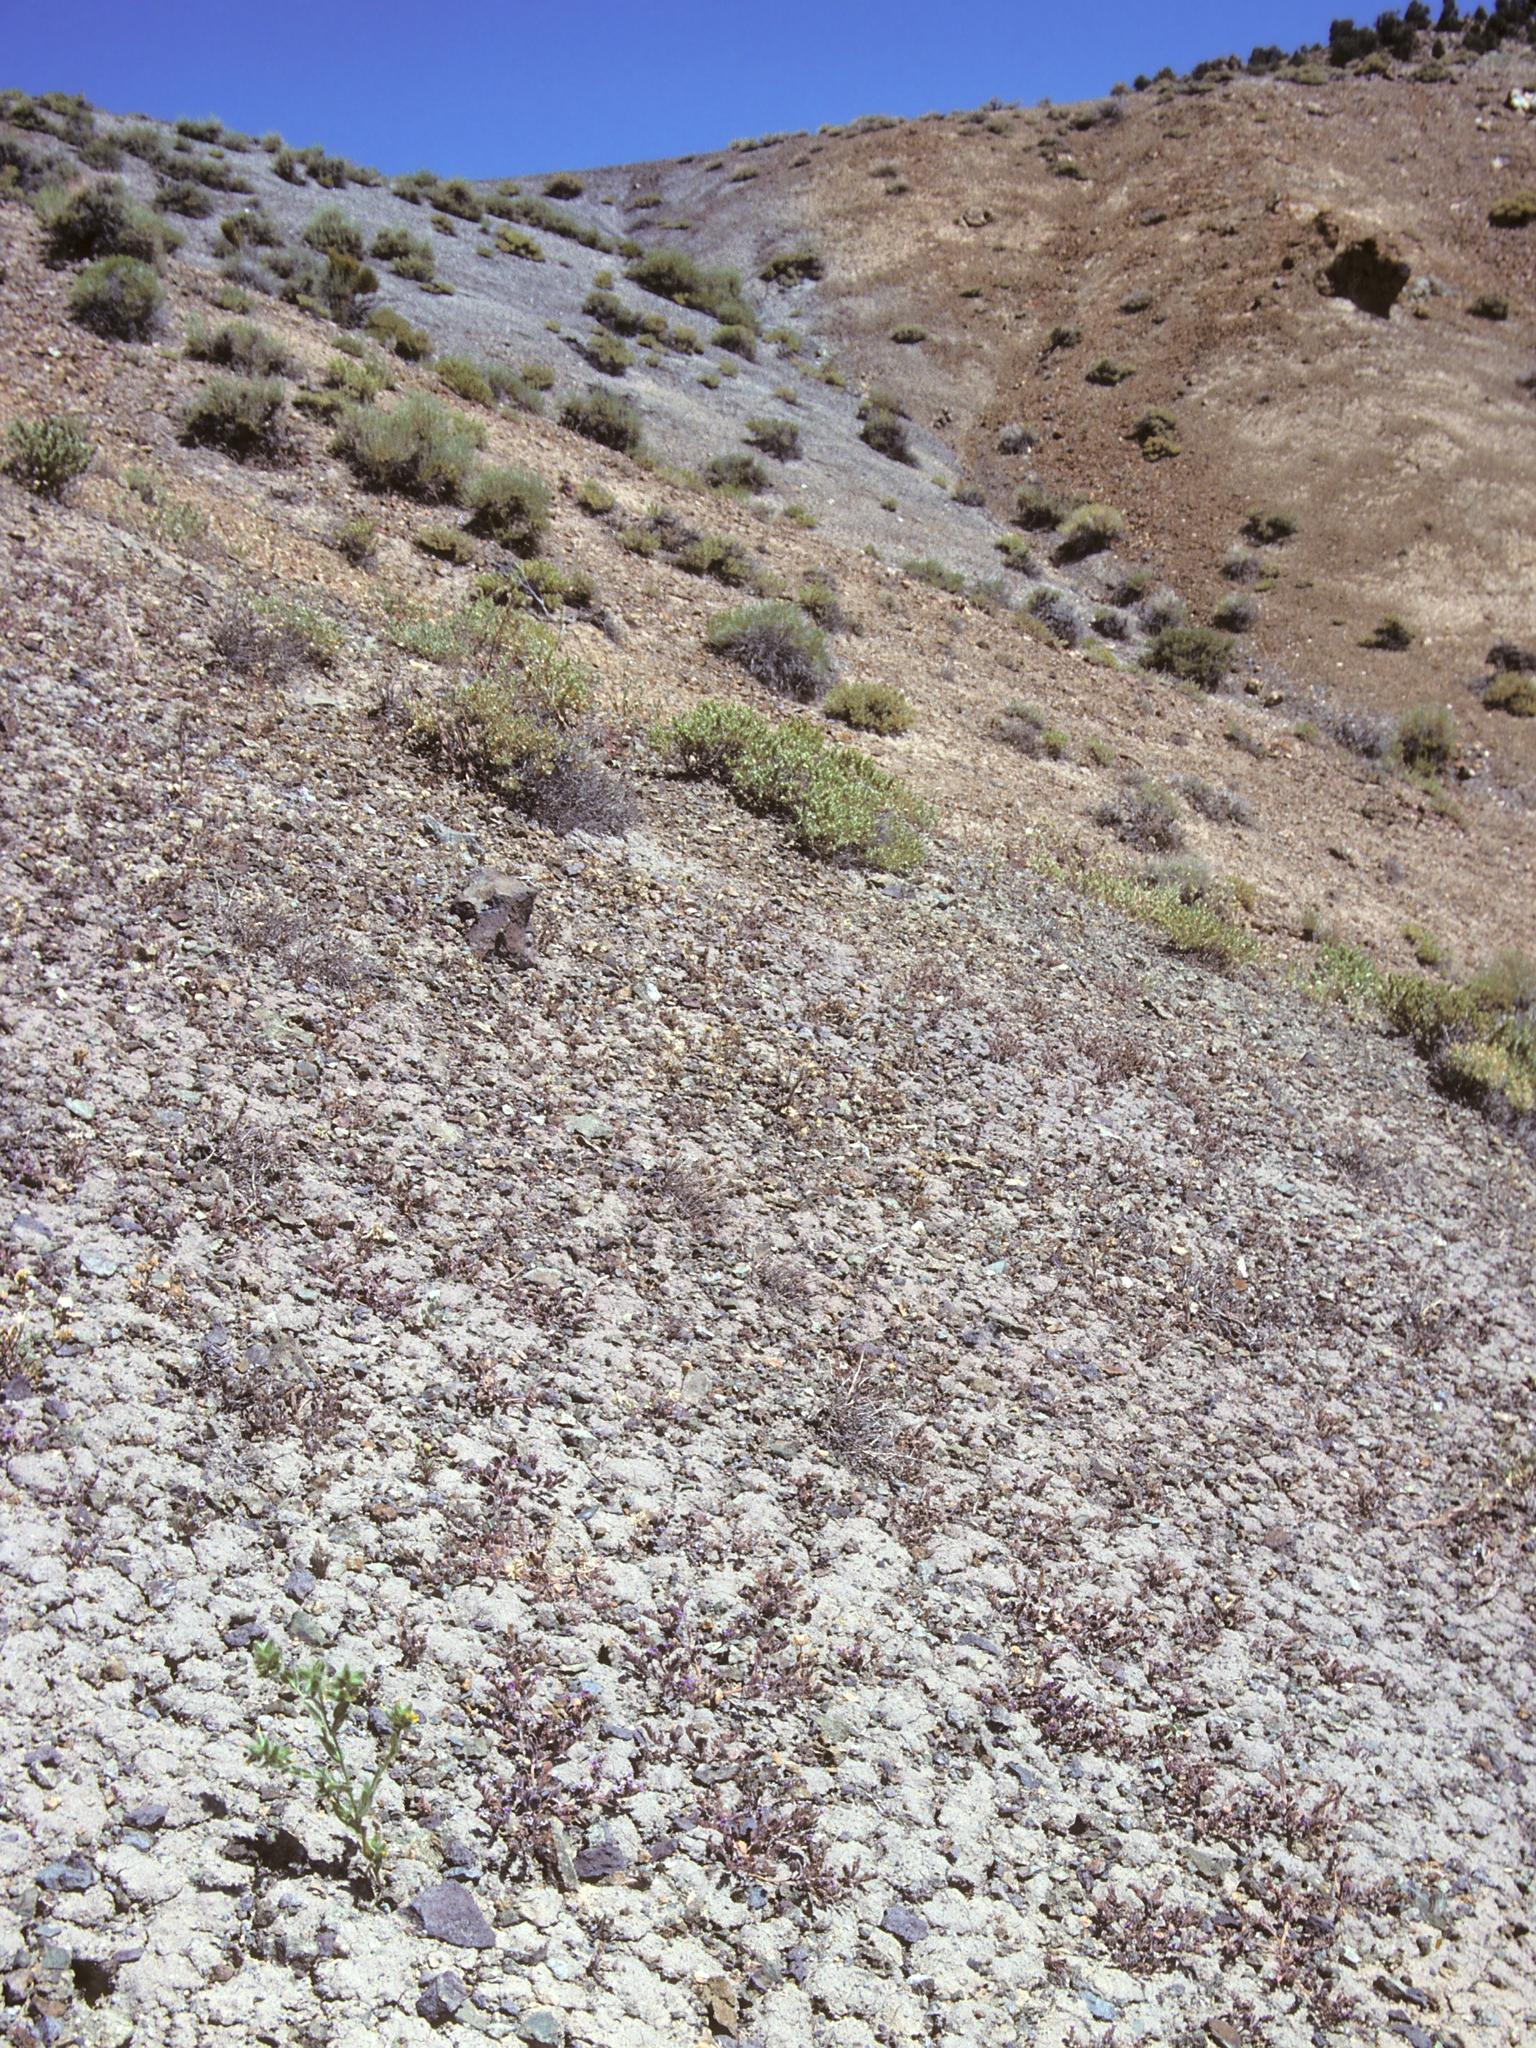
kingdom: Plantae
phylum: Tracheophyta
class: Magnoliopsida
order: Boraginales
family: Hydrophyllaceae
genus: Phacelia
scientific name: Phacelia gymnoclada
